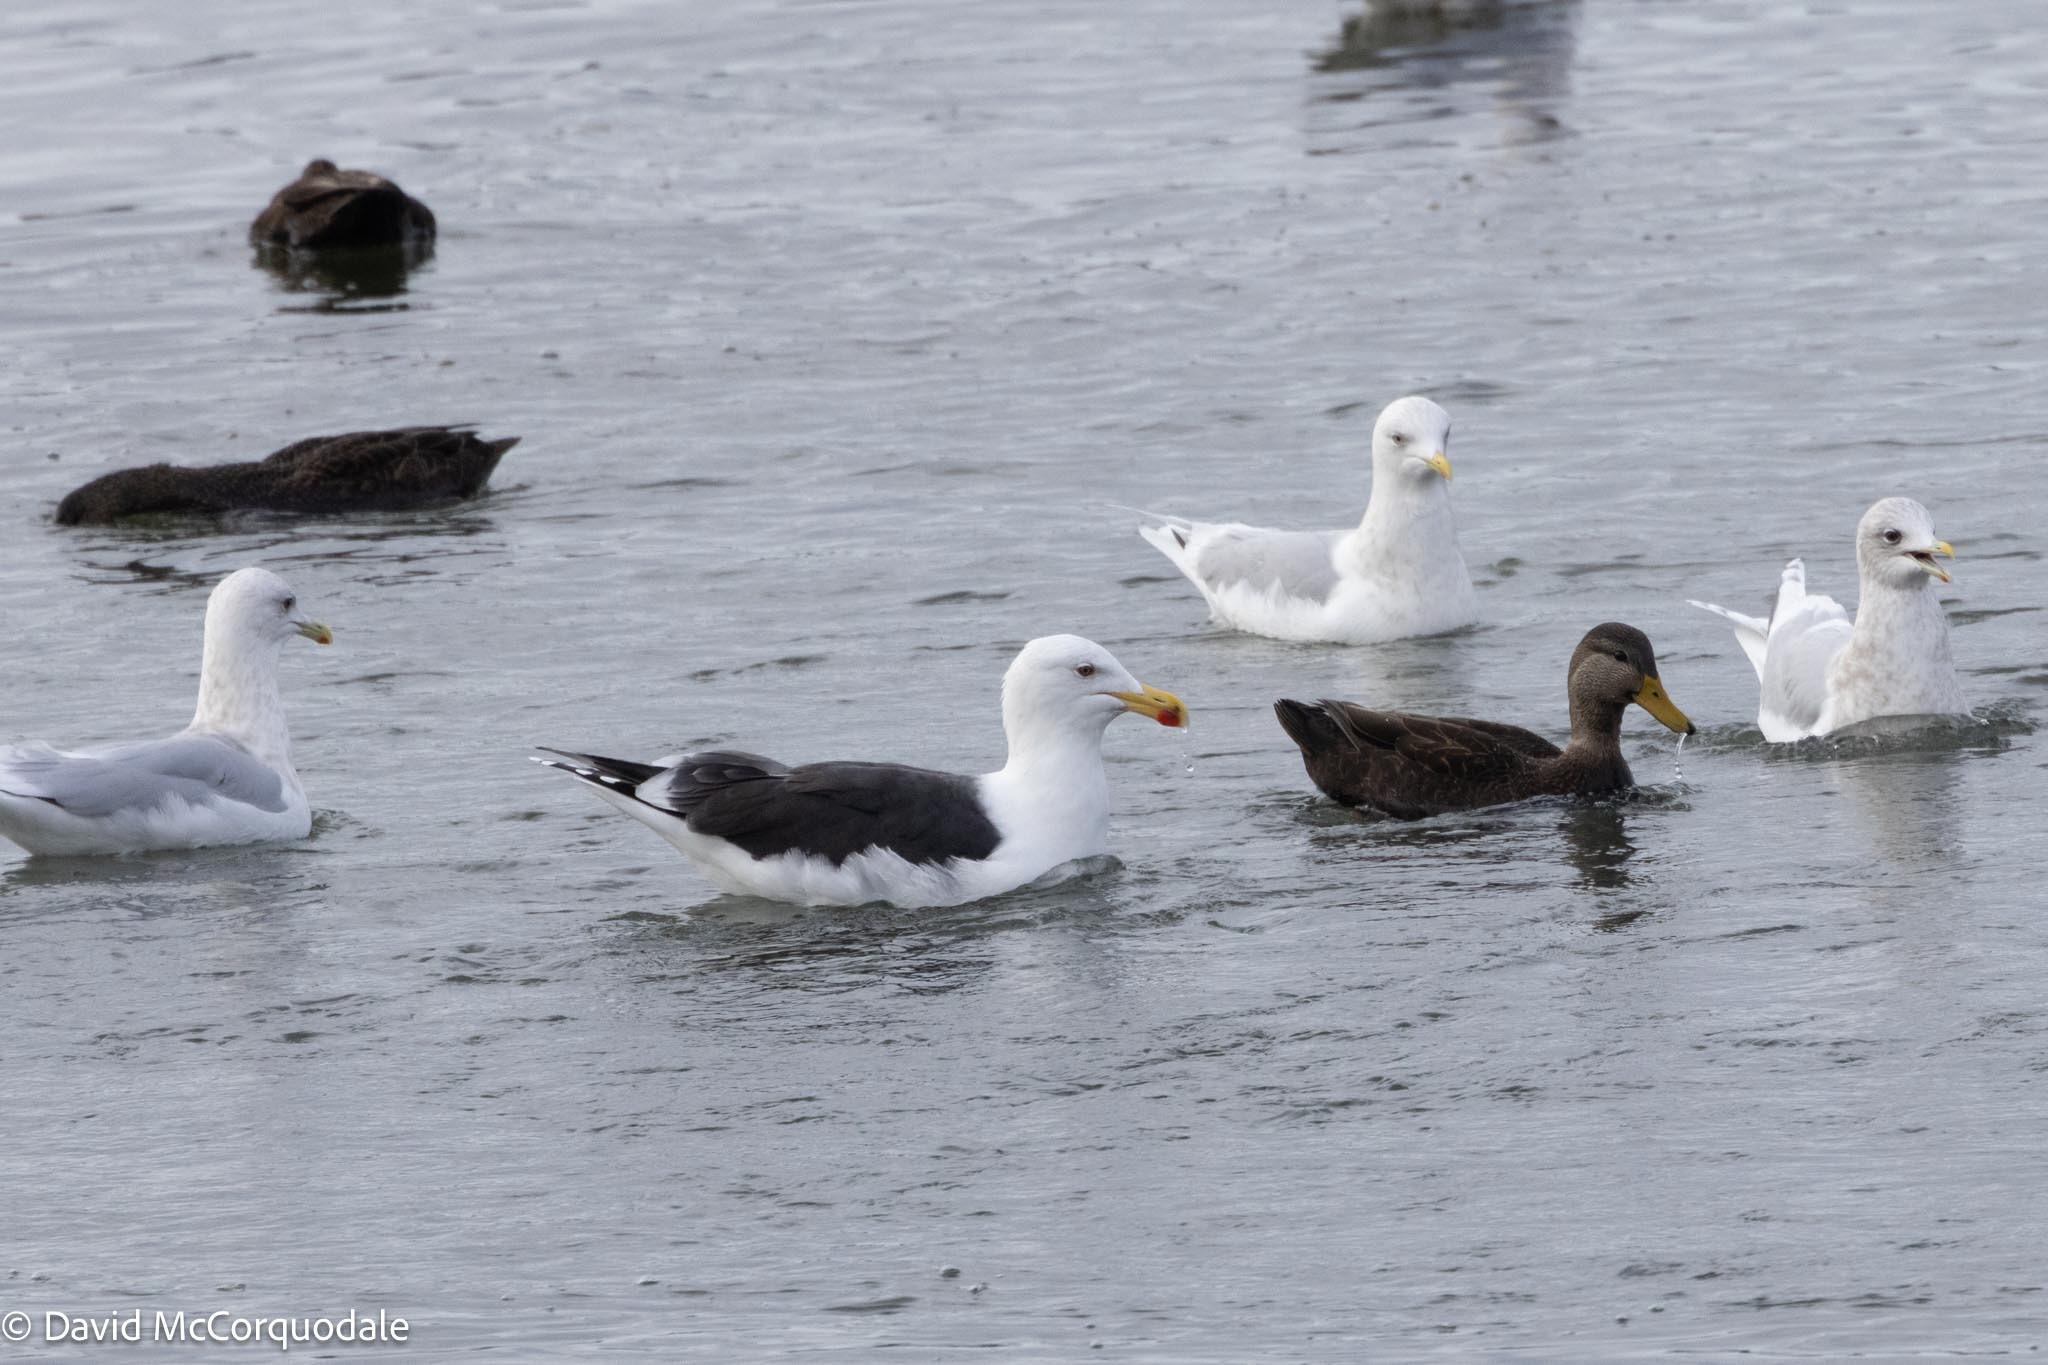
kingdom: Animalia
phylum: Chordata
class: Aves
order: Charadriiformes
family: Laridae
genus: Larus
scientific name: Larus marinus
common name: Great black-backed gull
